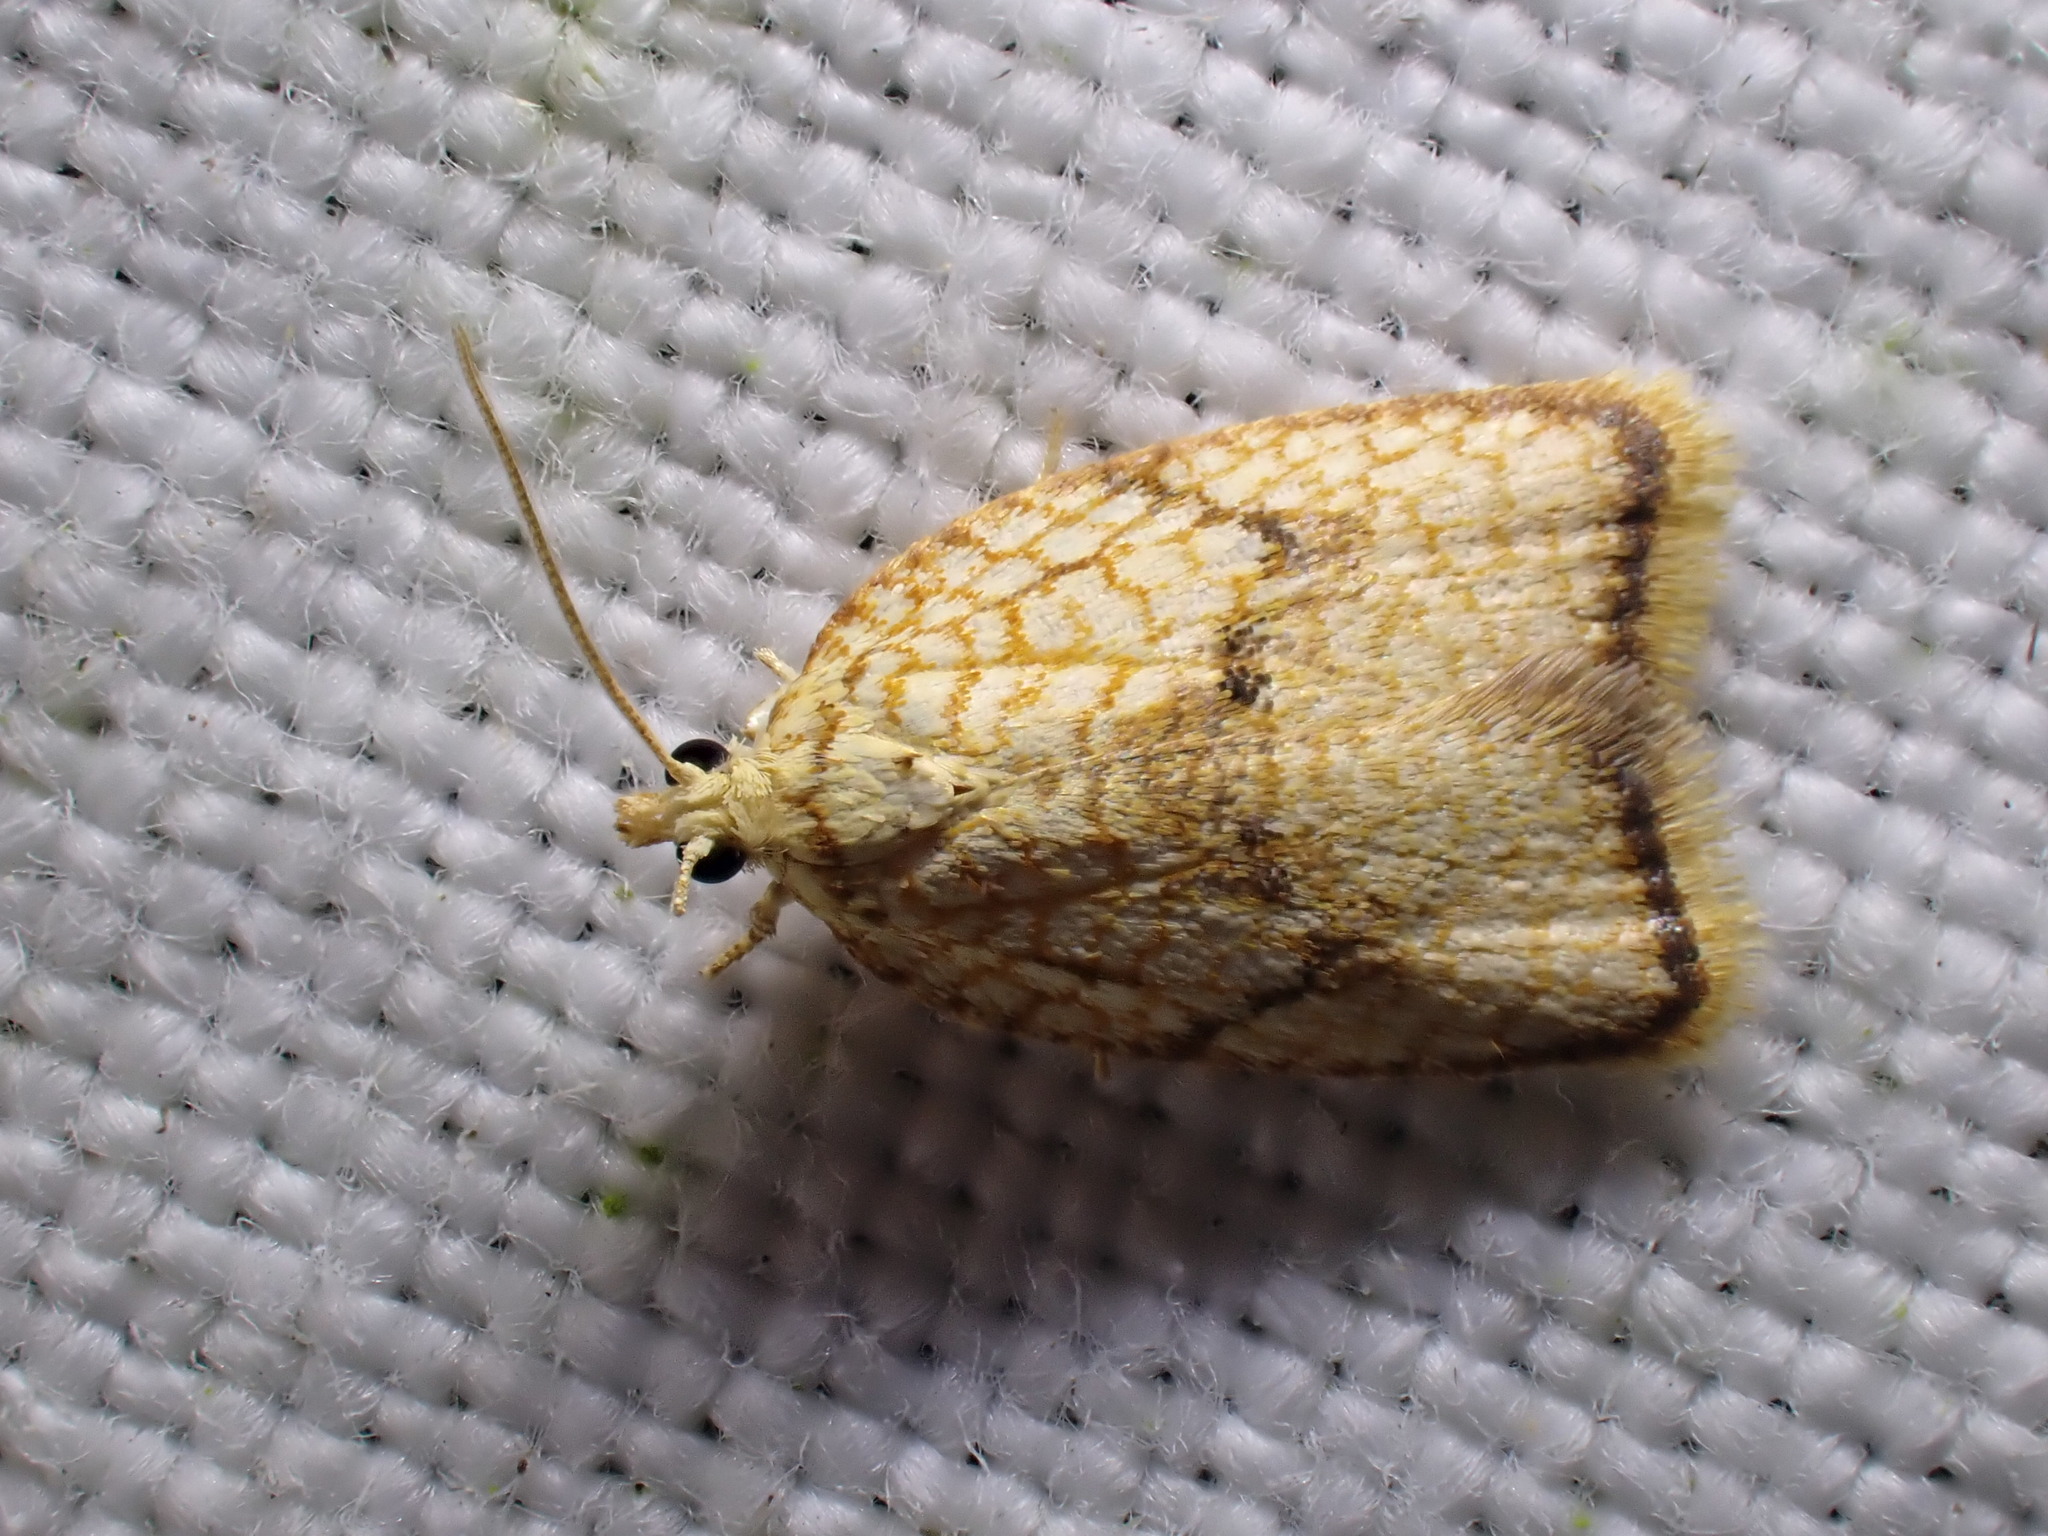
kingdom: Animalia
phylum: Arthropoda
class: Insecta
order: Lepidoptera
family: Tortricidae
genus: Acleris
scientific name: Acleris forsskaleana
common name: Maple button
